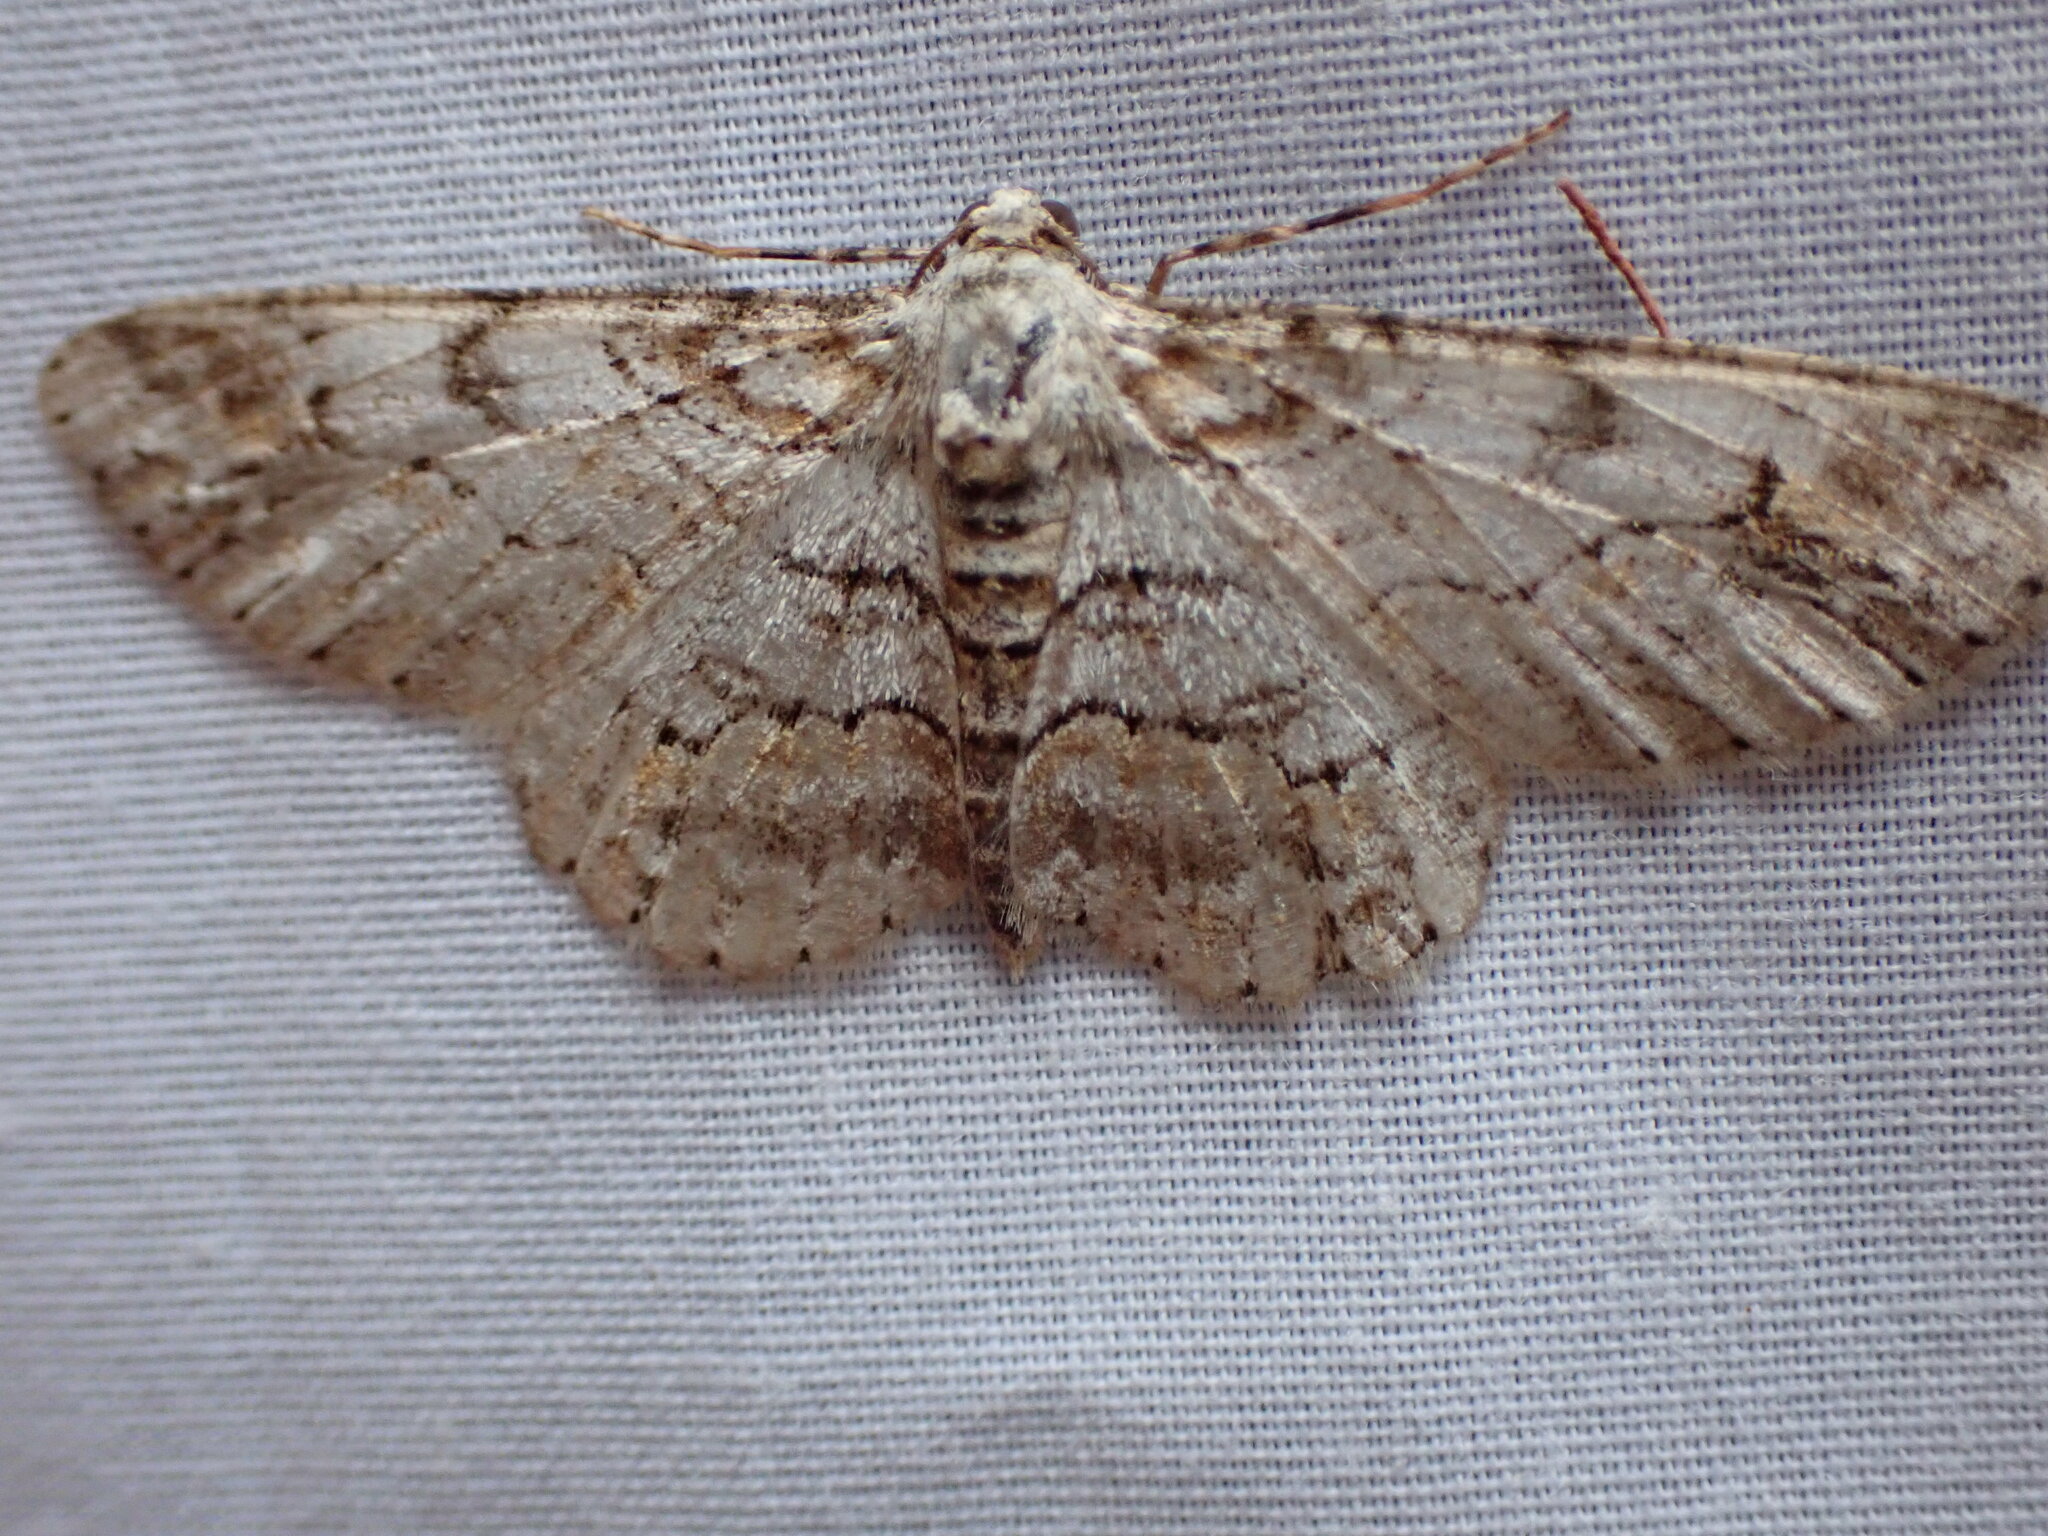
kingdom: Animalia
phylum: Arthropoda
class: Insecta
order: Lepidoptera
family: Geometridae
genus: Iridopsis
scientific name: Iridopsis emasculatum
